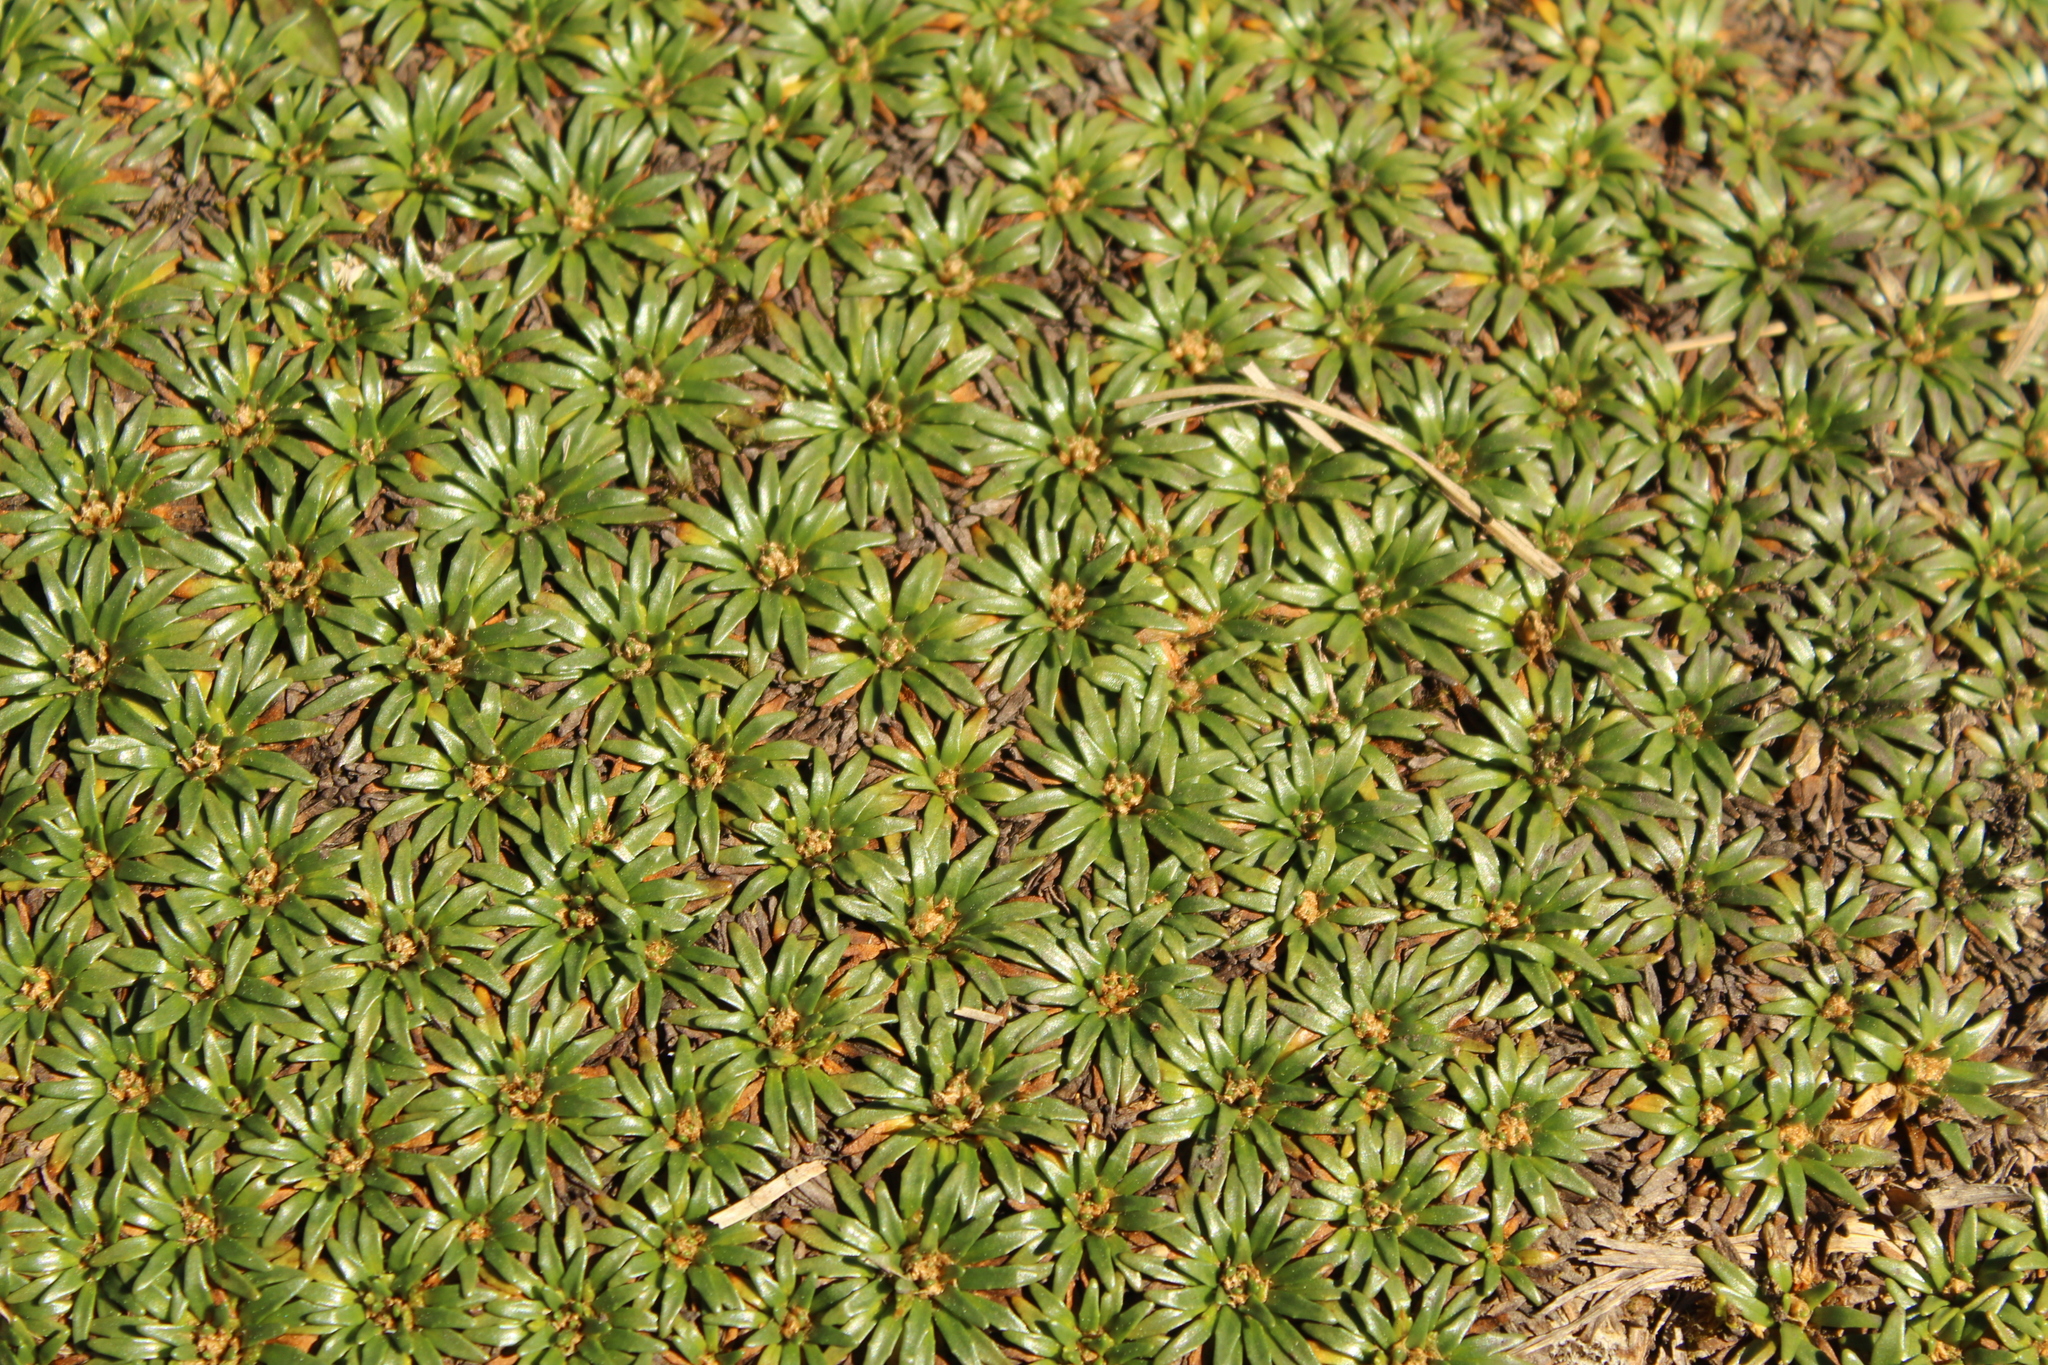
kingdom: Plantae
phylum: Tracheophyta
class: Magnoliopsida
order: Lamiales
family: Plantaginaceae
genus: Plantago
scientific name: Plantago rigida
